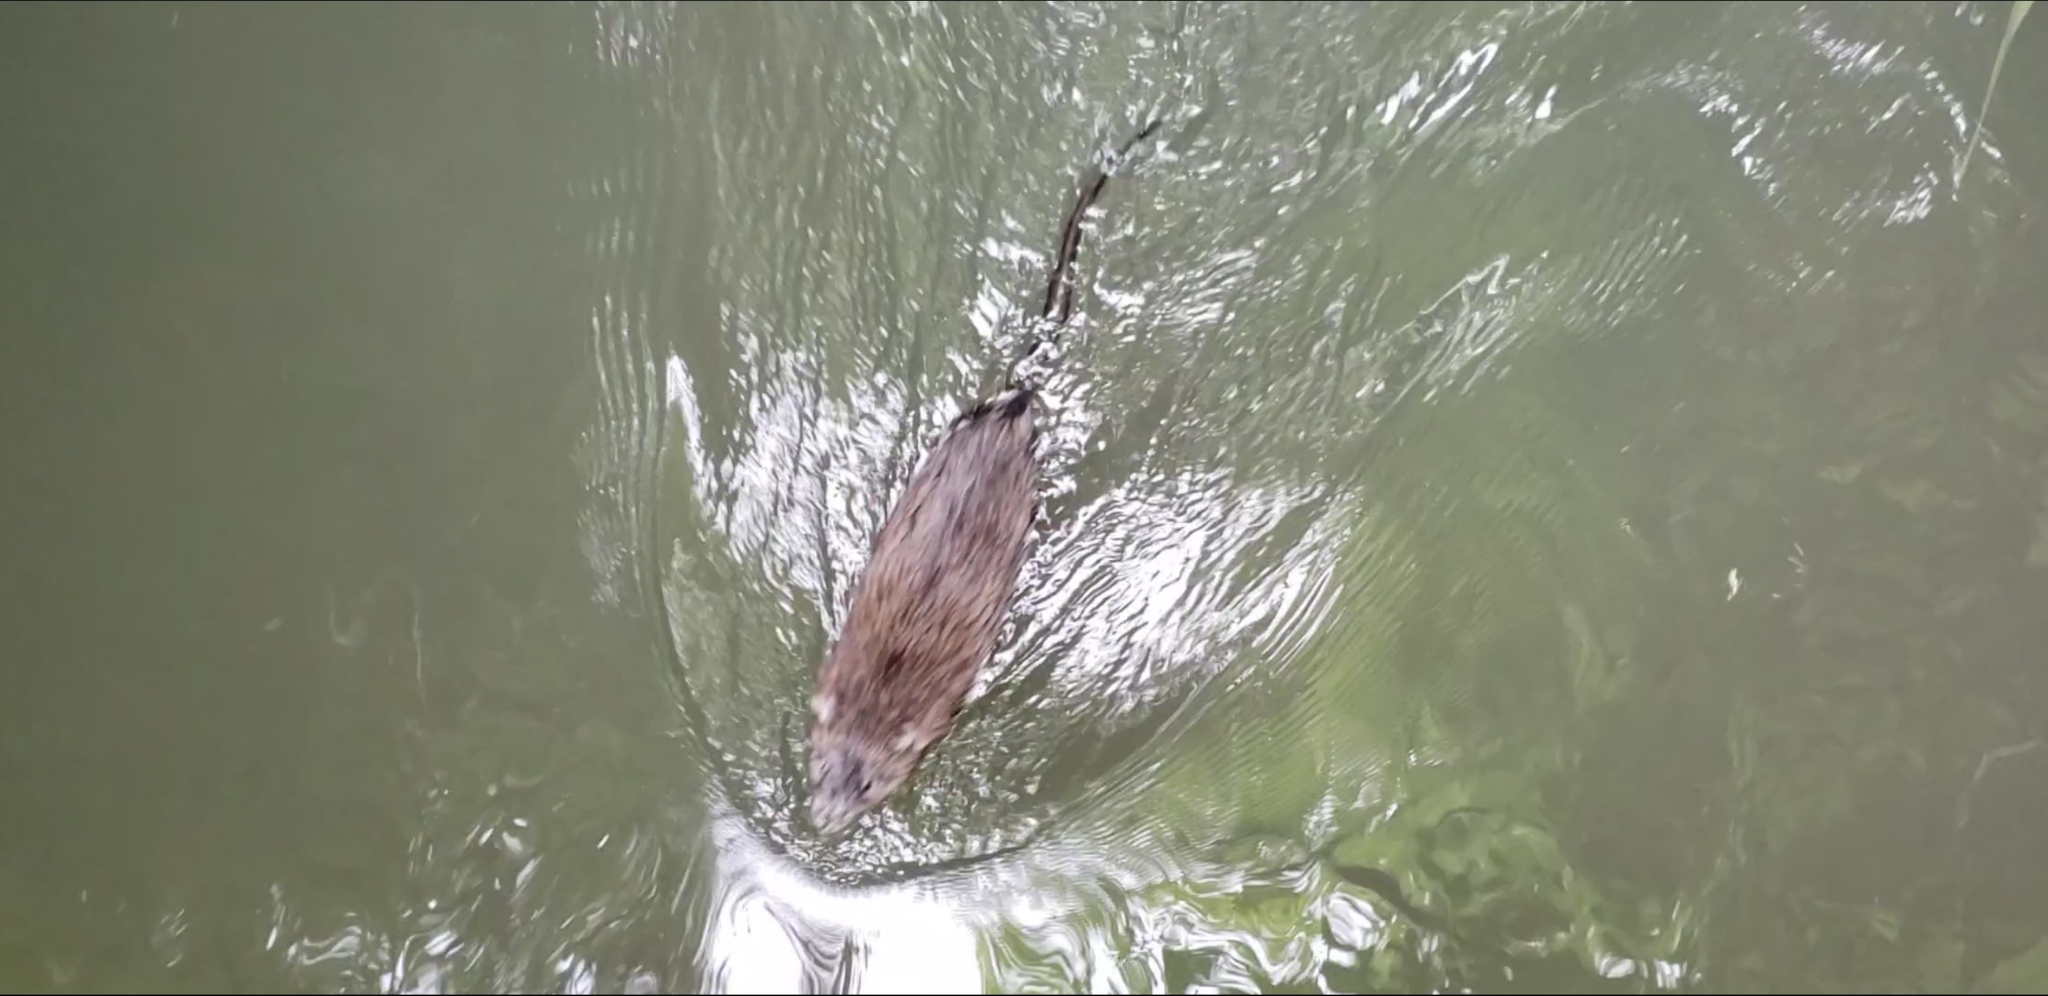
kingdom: Animalia
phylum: Chordata
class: Mammalia
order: Rodentia
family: Cricetidae
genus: Ondatra
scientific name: Ondatra zibethicus
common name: Muskrat
